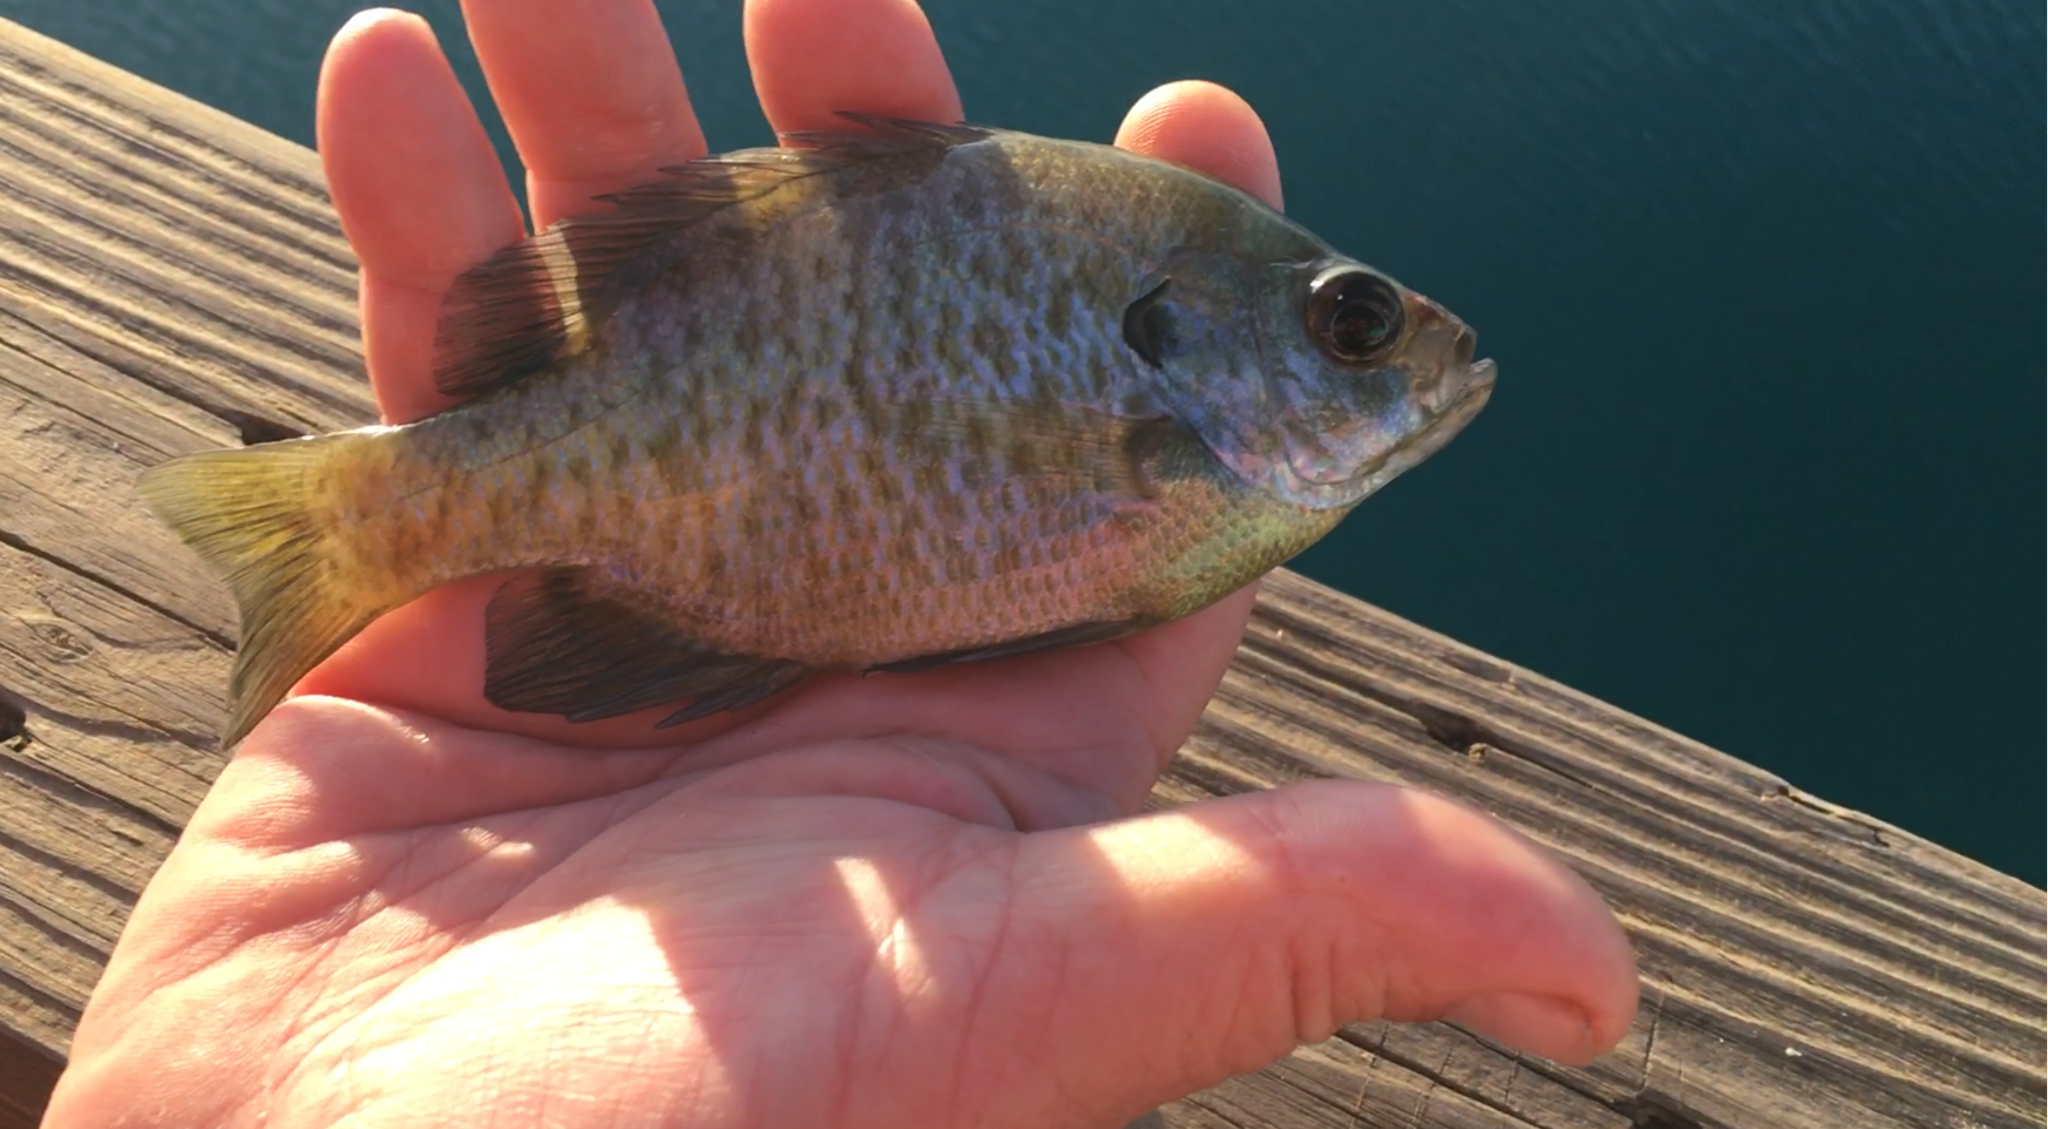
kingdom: Animalia
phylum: Chordata
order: Perciformes
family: Centrarchidae
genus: Lepomis
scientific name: Lepomis macrochirus
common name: Bluegill
